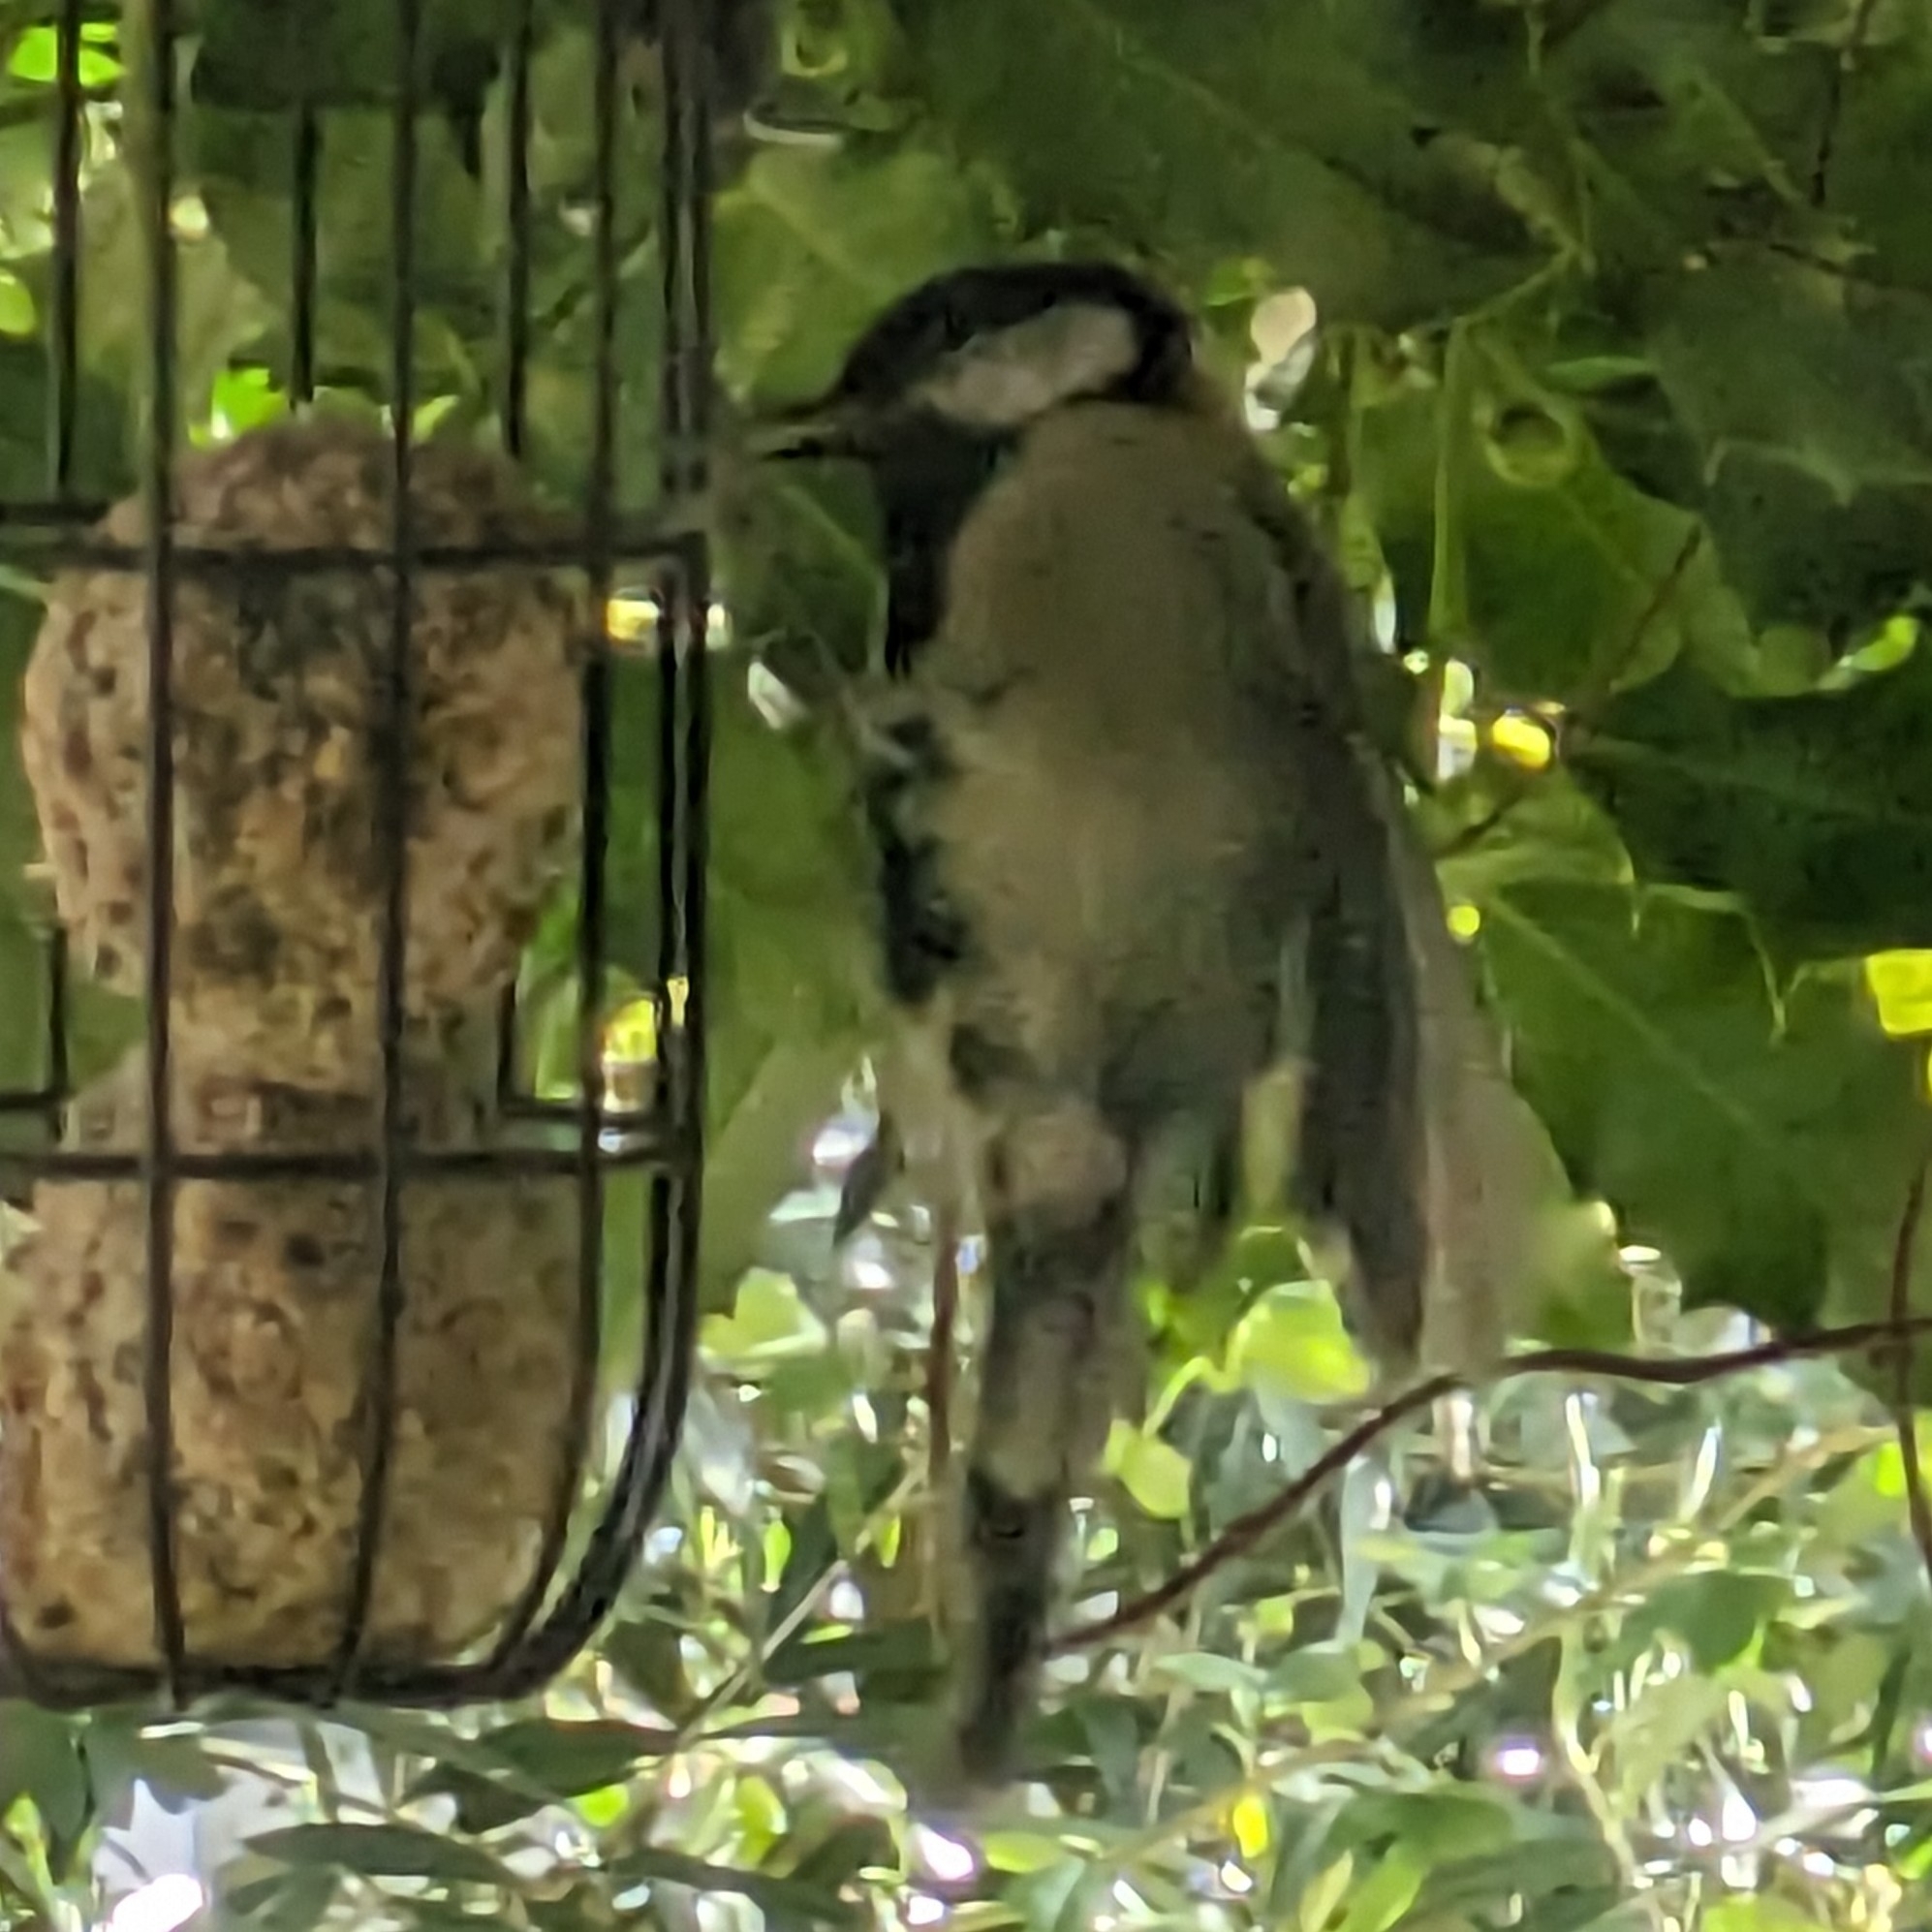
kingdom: Animalia
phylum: Chordata
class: Aves
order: Passeriformes
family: Paridae
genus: Parus
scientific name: Parus major
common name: Great tit
